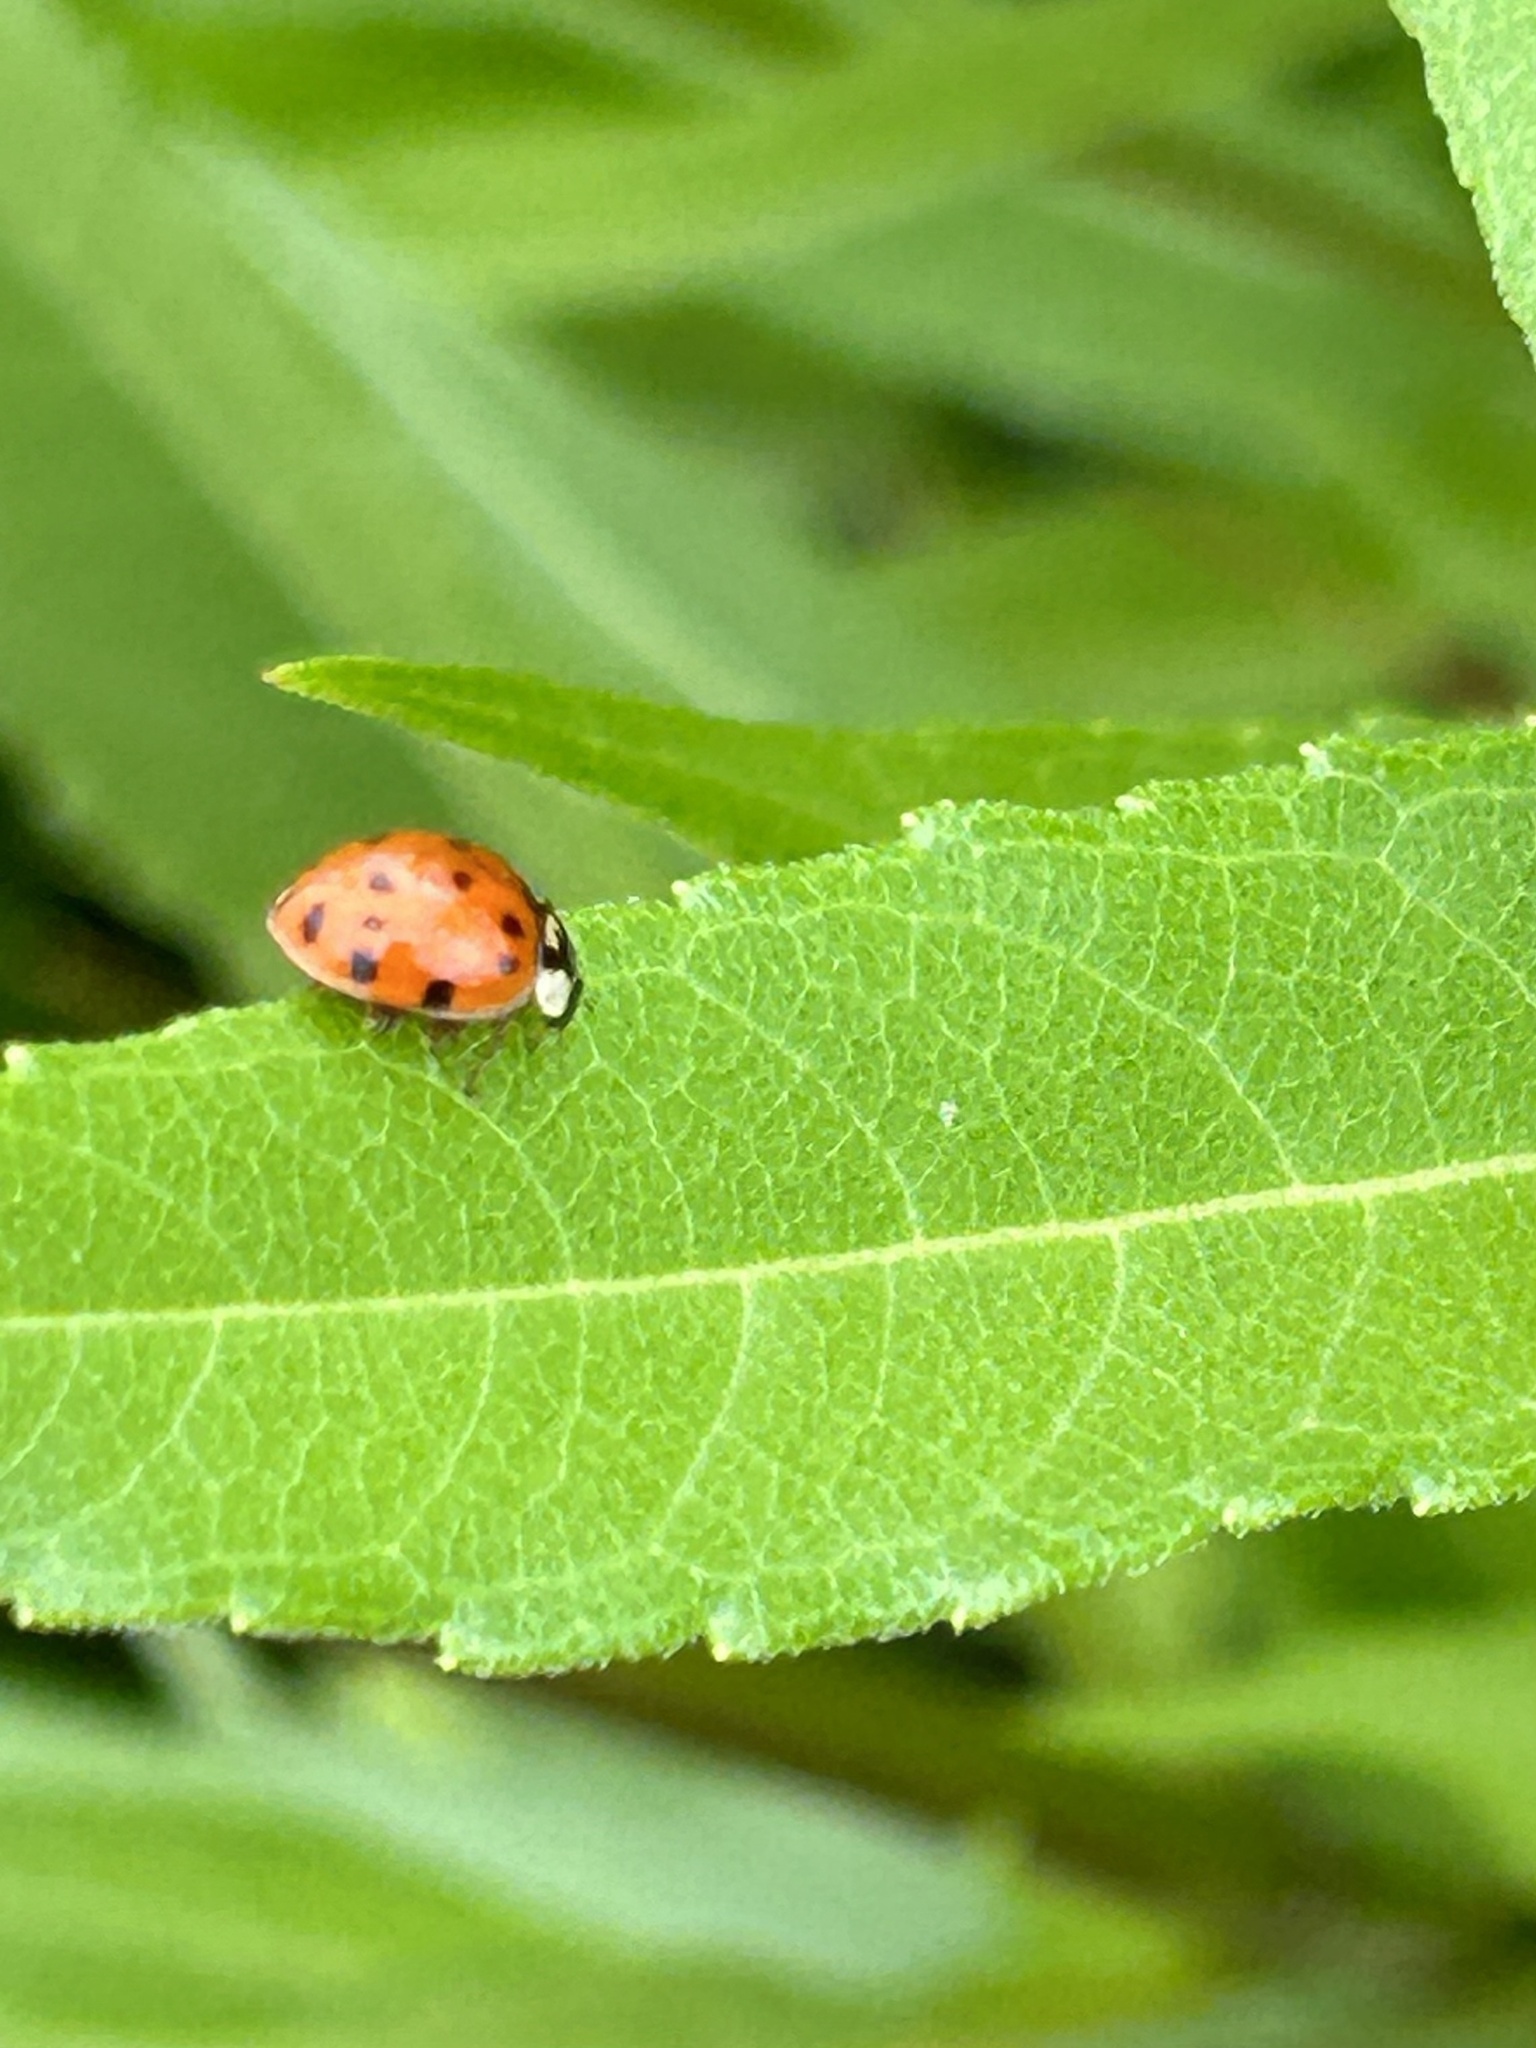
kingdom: Animalia
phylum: Arthropoda
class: Insecta
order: Coleoptera
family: Coccinellidae
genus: Harmonia
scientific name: Harmonia axyridis
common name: Harlequin ladybird
